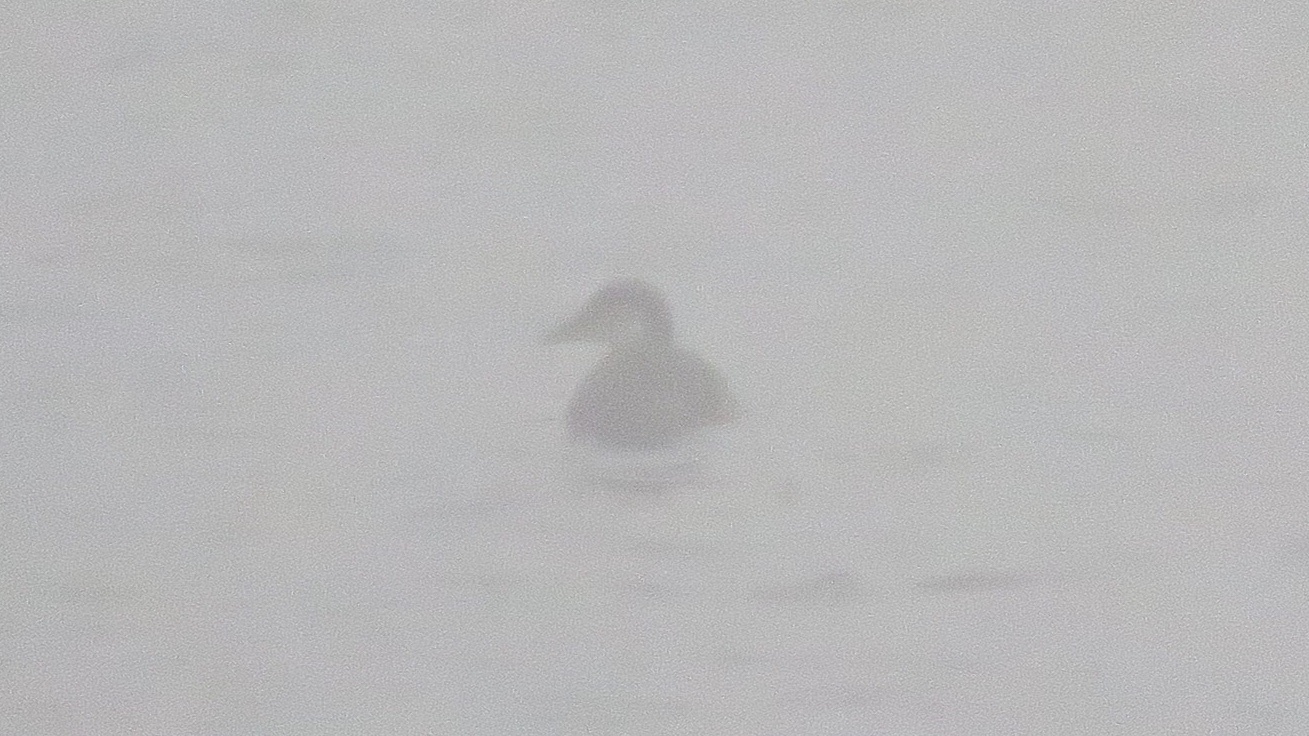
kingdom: Animalia
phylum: Chordata
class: Aves
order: Anseriformes
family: Anatidae
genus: Oxyura
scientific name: Oxyura jamaicensis
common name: Ruddy duck
